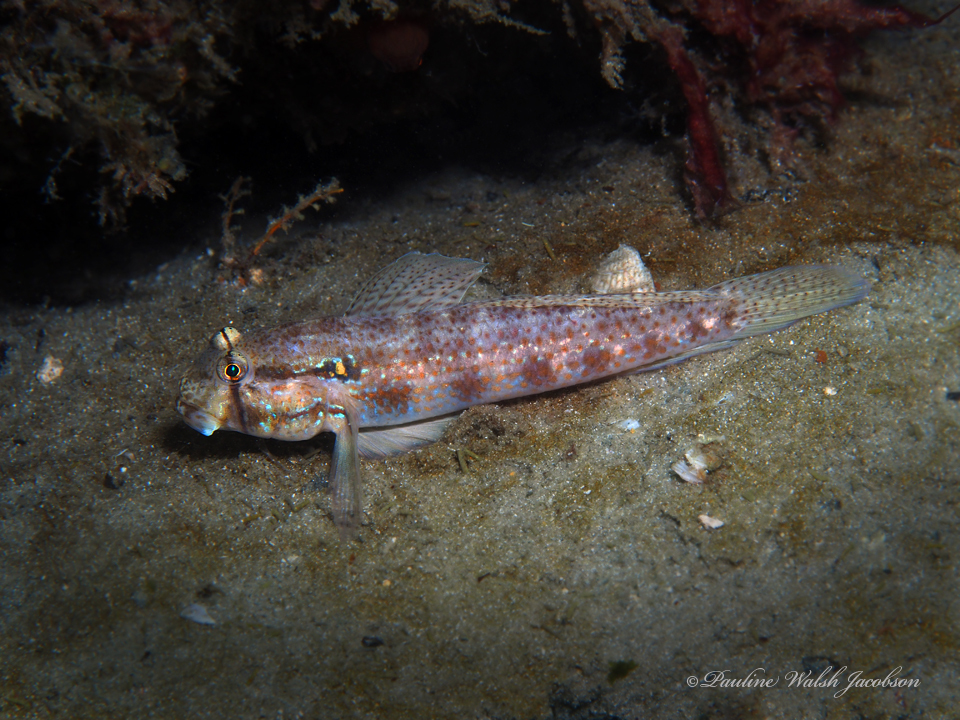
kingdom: Animalia
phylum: Chordata
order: Perciformes
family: Gobiidae
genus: Gnatholepis
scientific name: Gnatholepis thompsoni
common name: Goldspot goby
